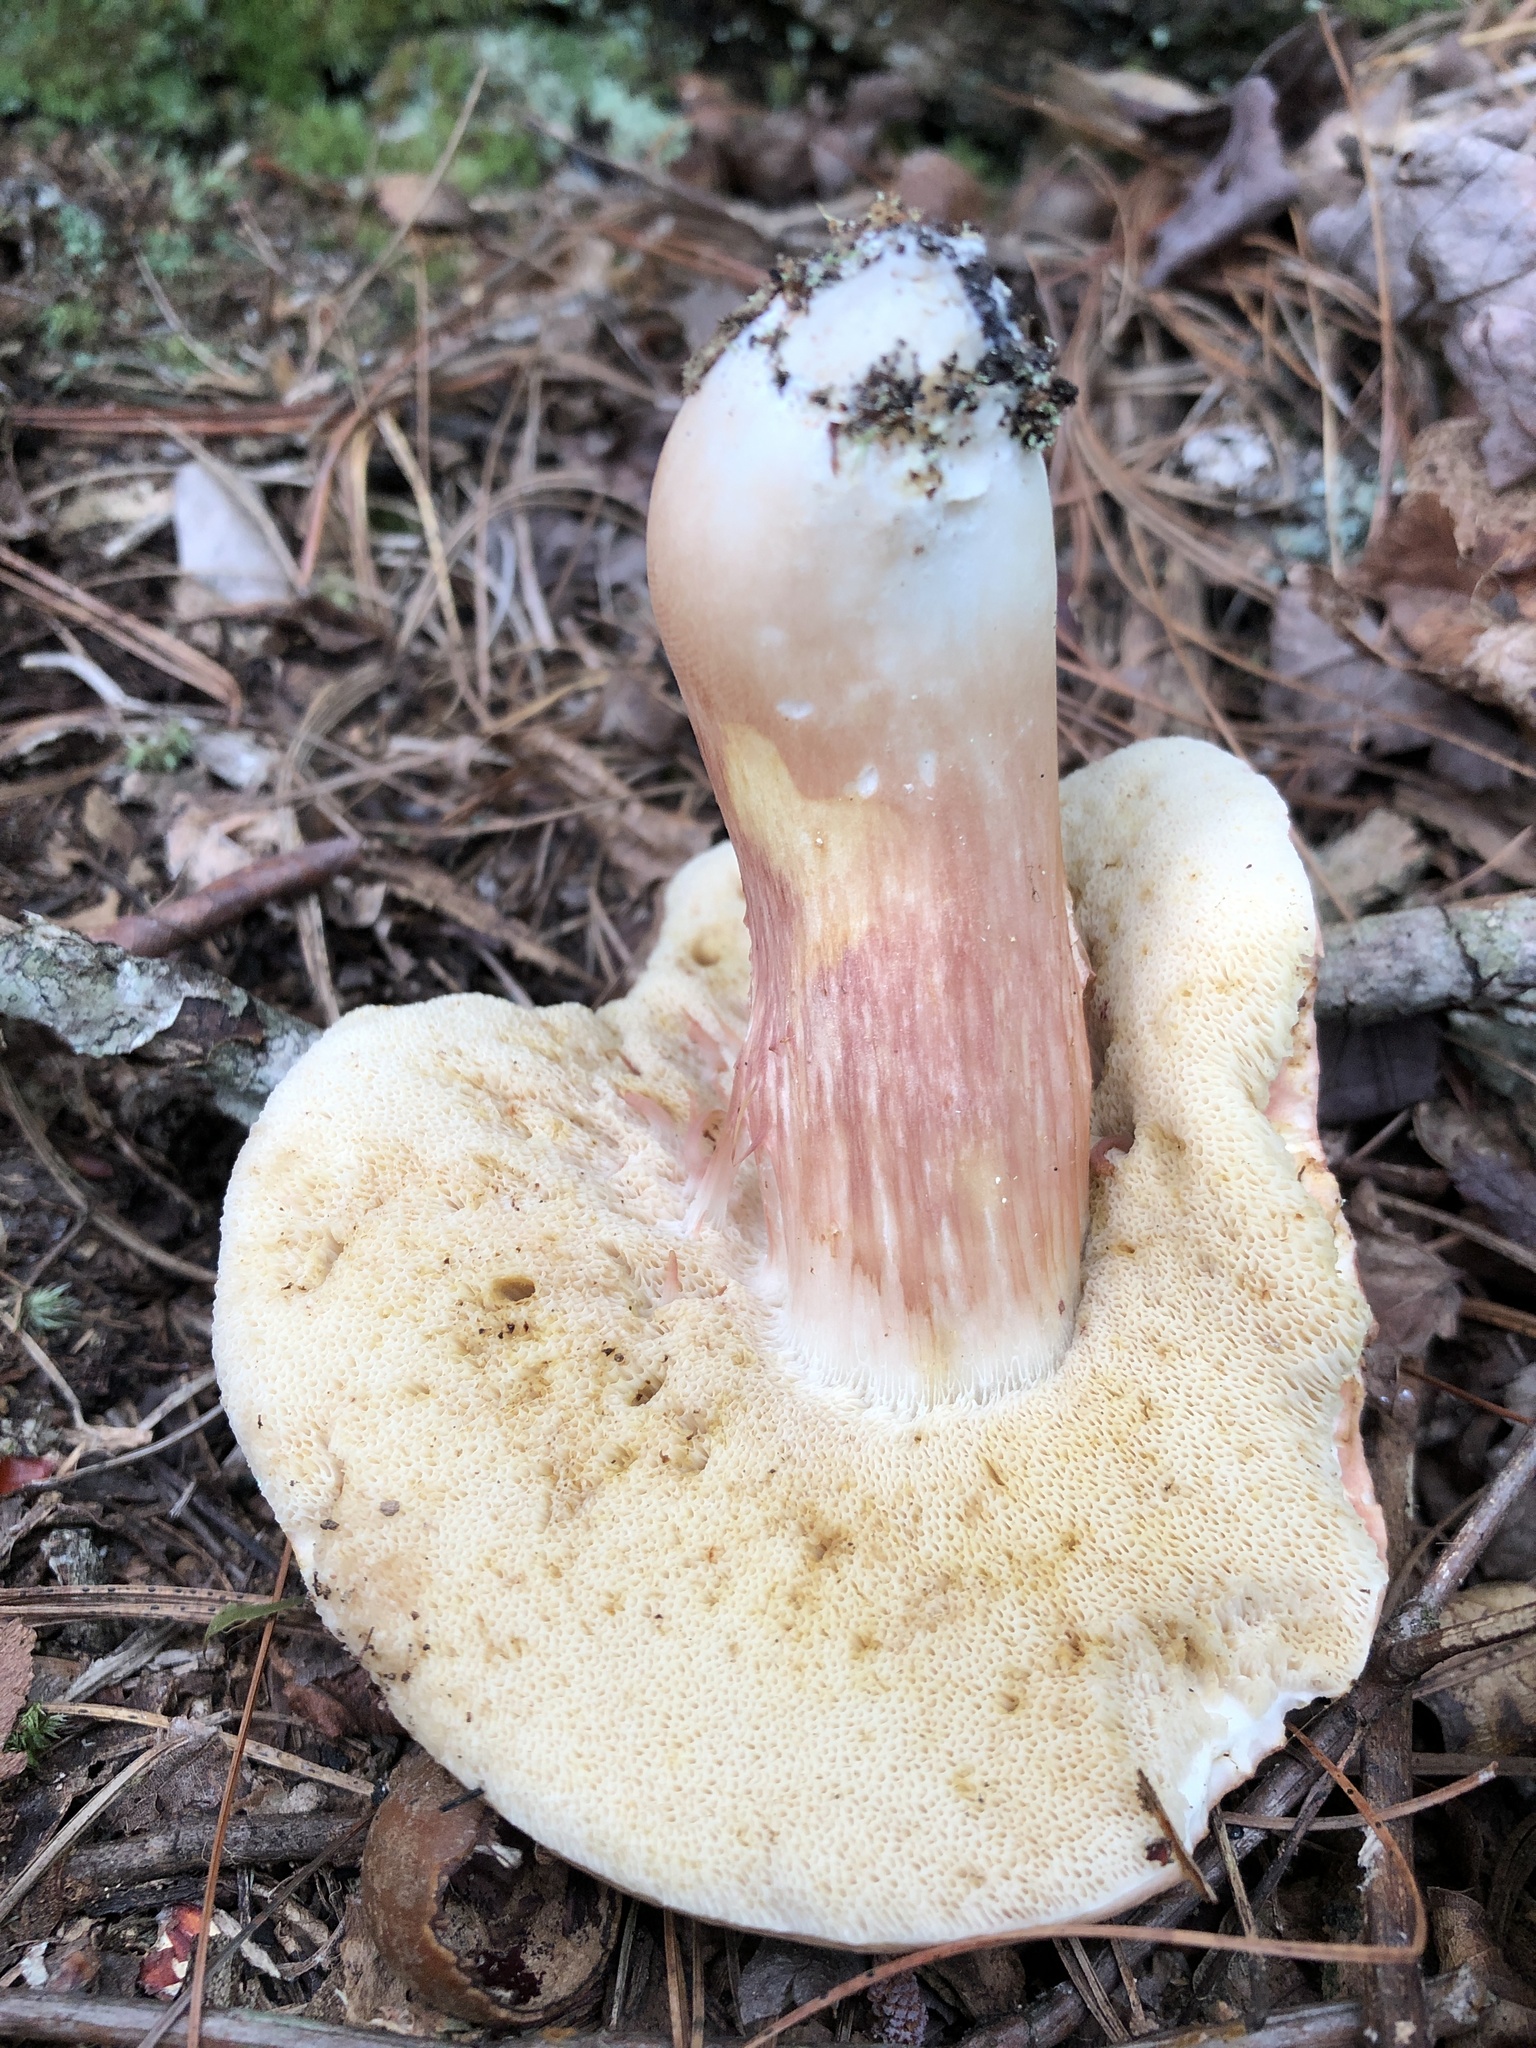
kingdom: Fungi
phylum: Basidiomycota
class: Agaricomycetes
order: Boletales
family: Boletaceae
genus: Xanthoconium
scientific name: Xanthoconium purpureum
